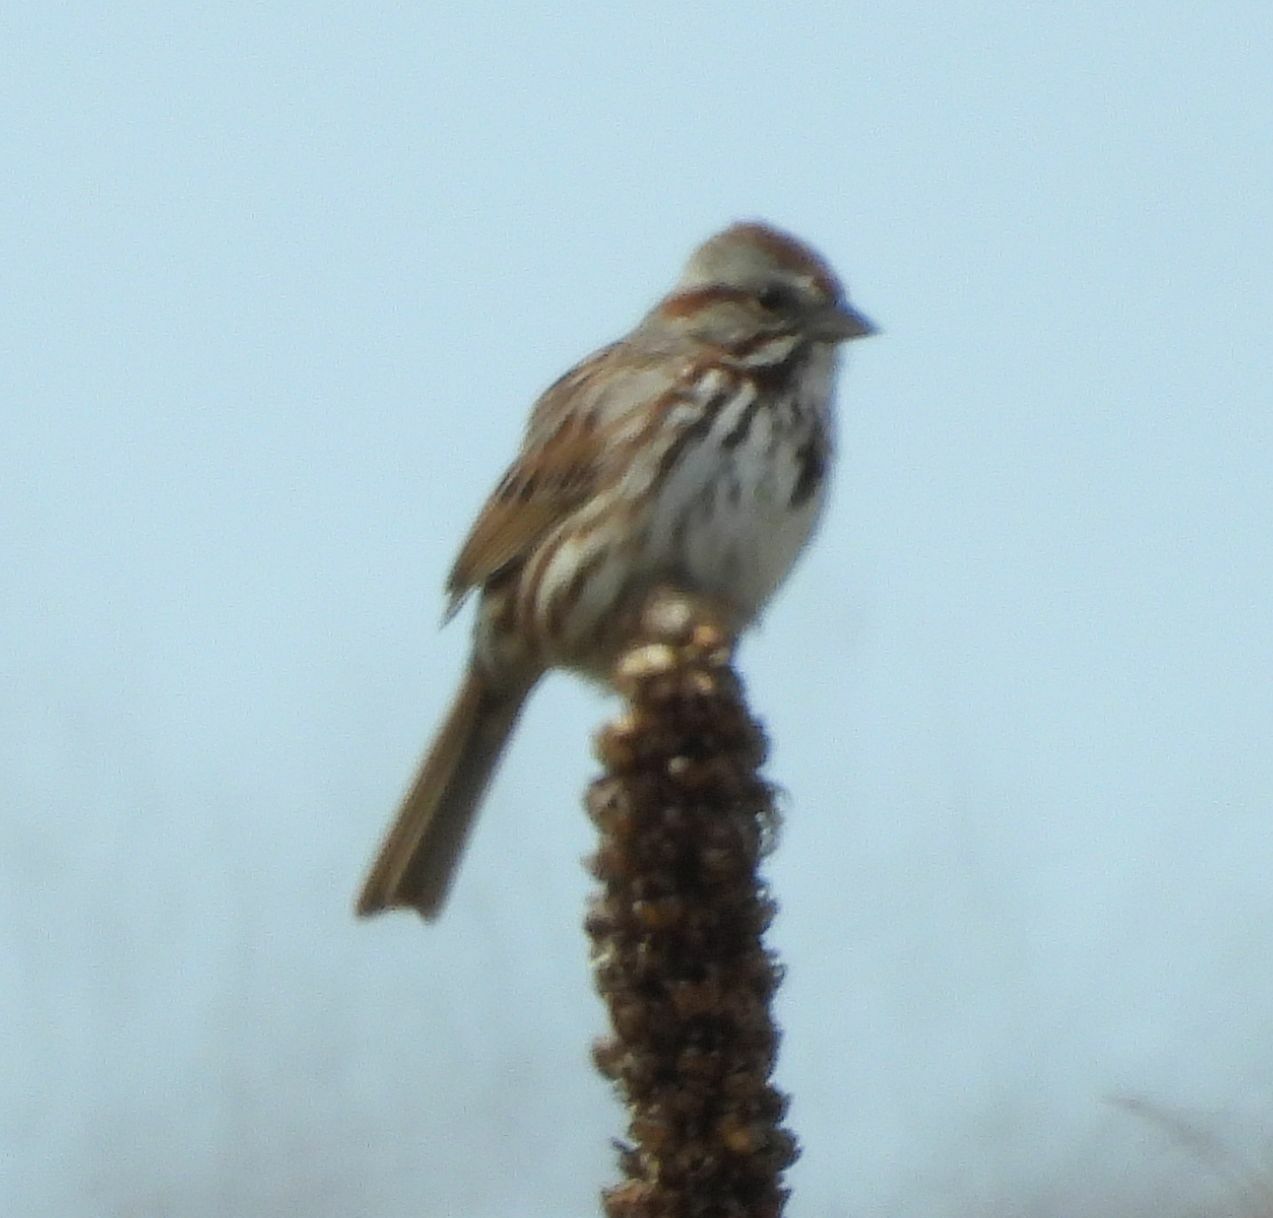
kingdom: Animalia
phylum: Chordata
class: Aves
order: Passeriformes
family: Passerellidae
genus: Melospiza
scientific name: Melospiza melodia
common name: Song sparrow
